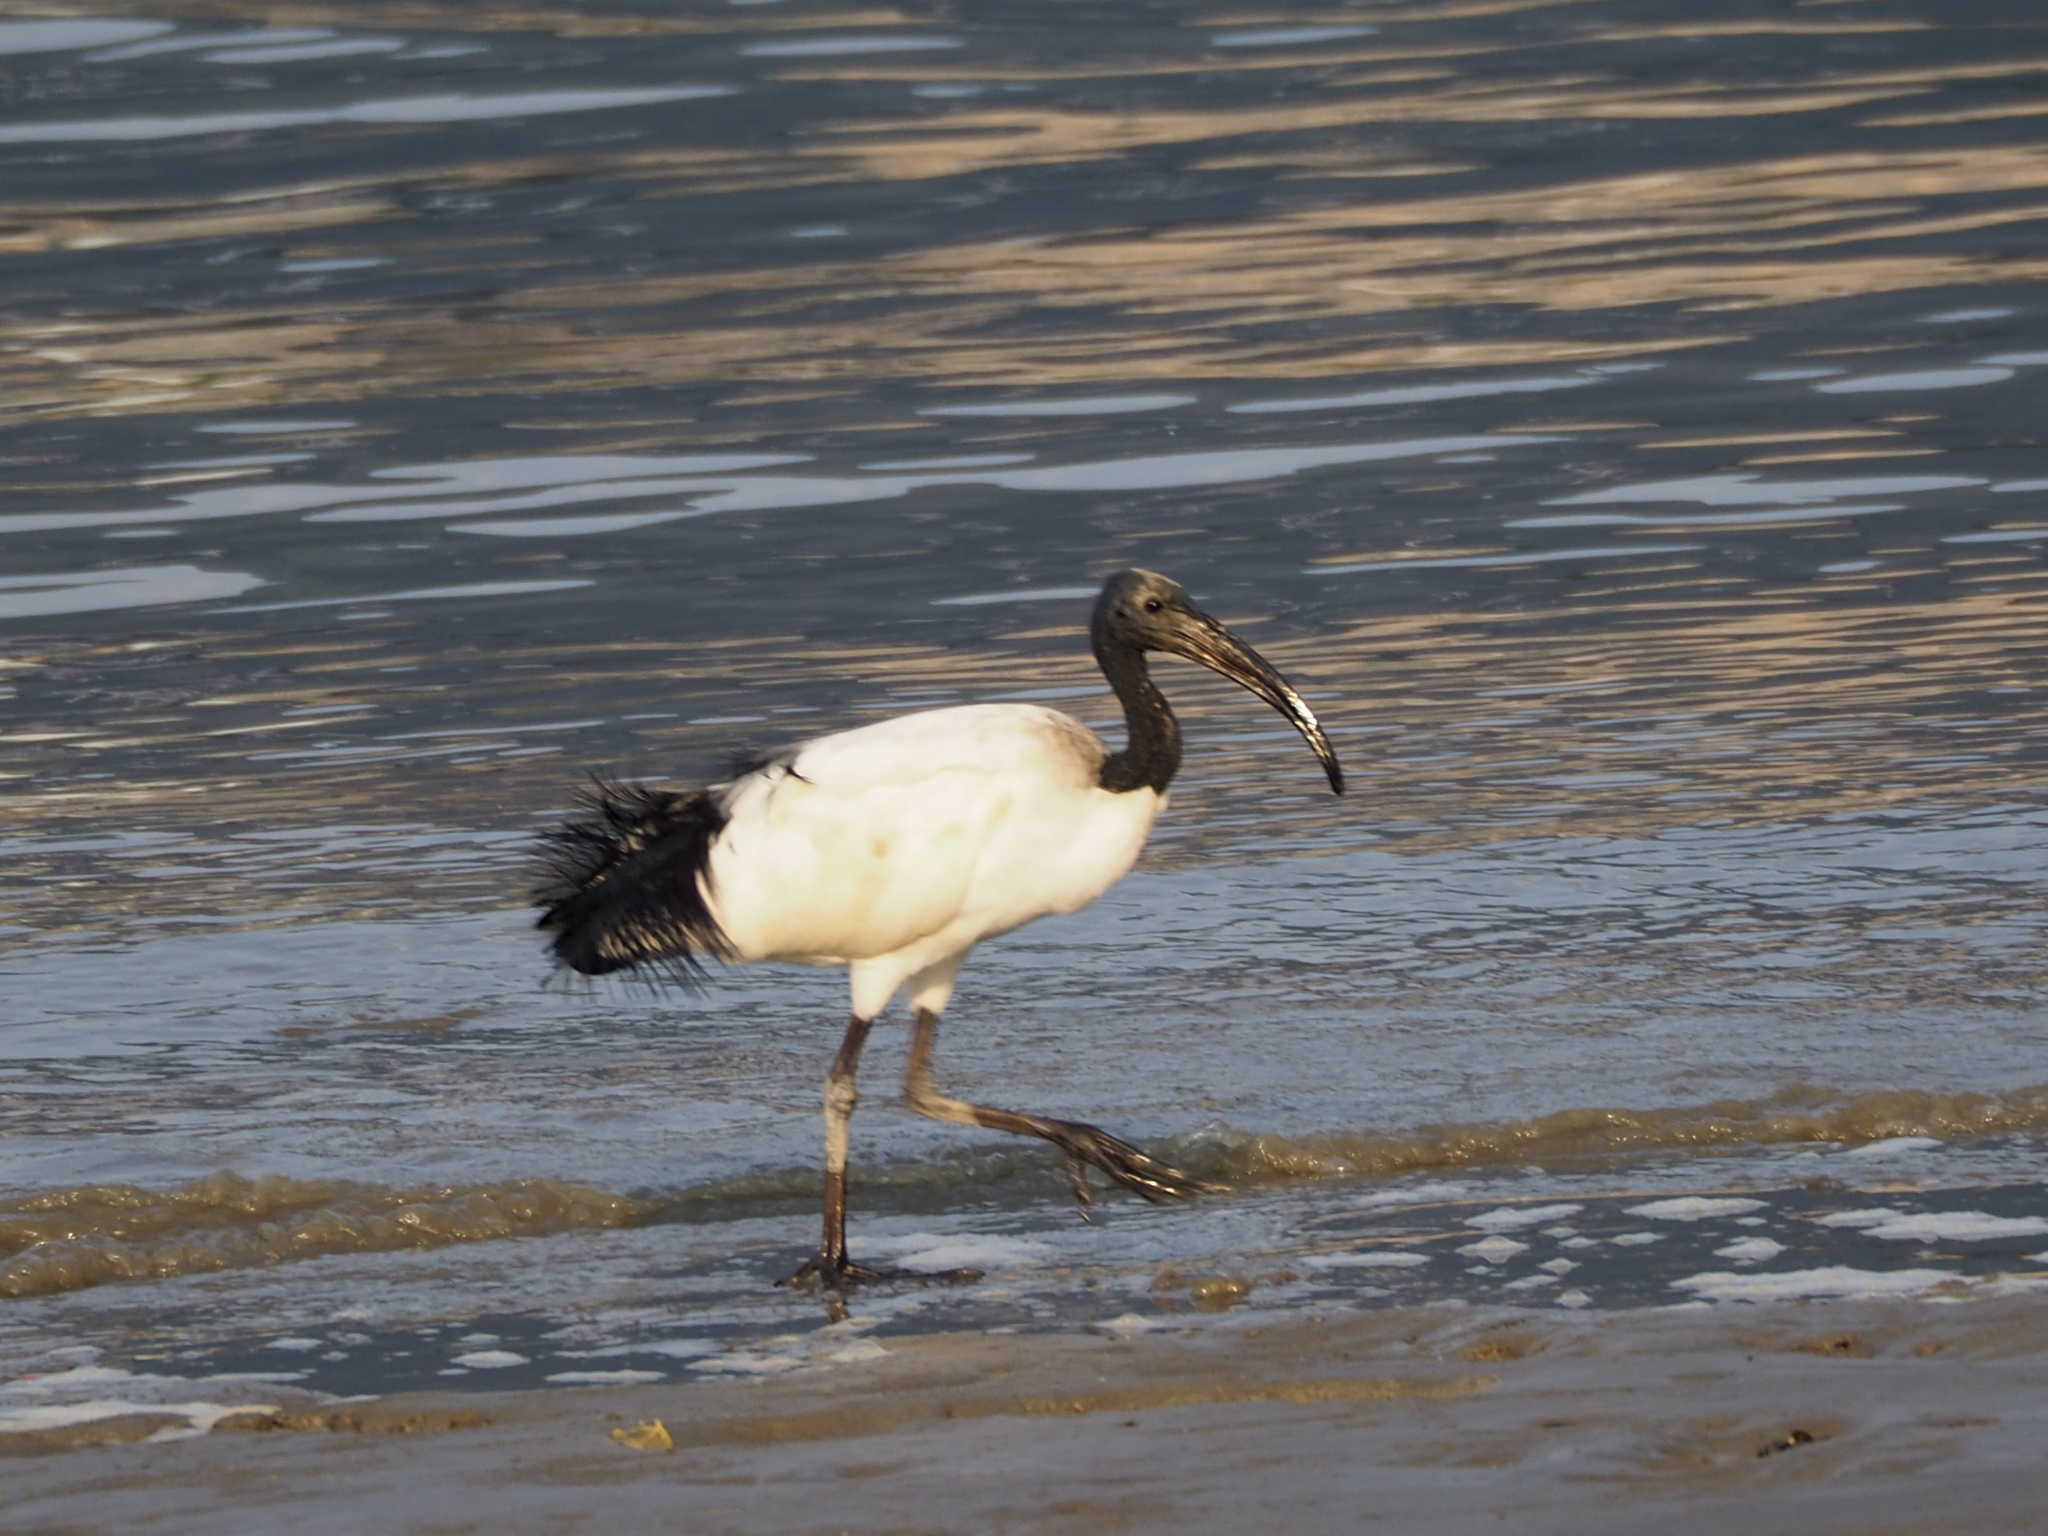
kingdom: Animalia
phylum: Chordata
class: Aves
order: Pelecaniformes
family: Threskiornithidae
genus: Threskiornis
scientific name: Threskiornis aethiopicus
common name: Sacred ibis
